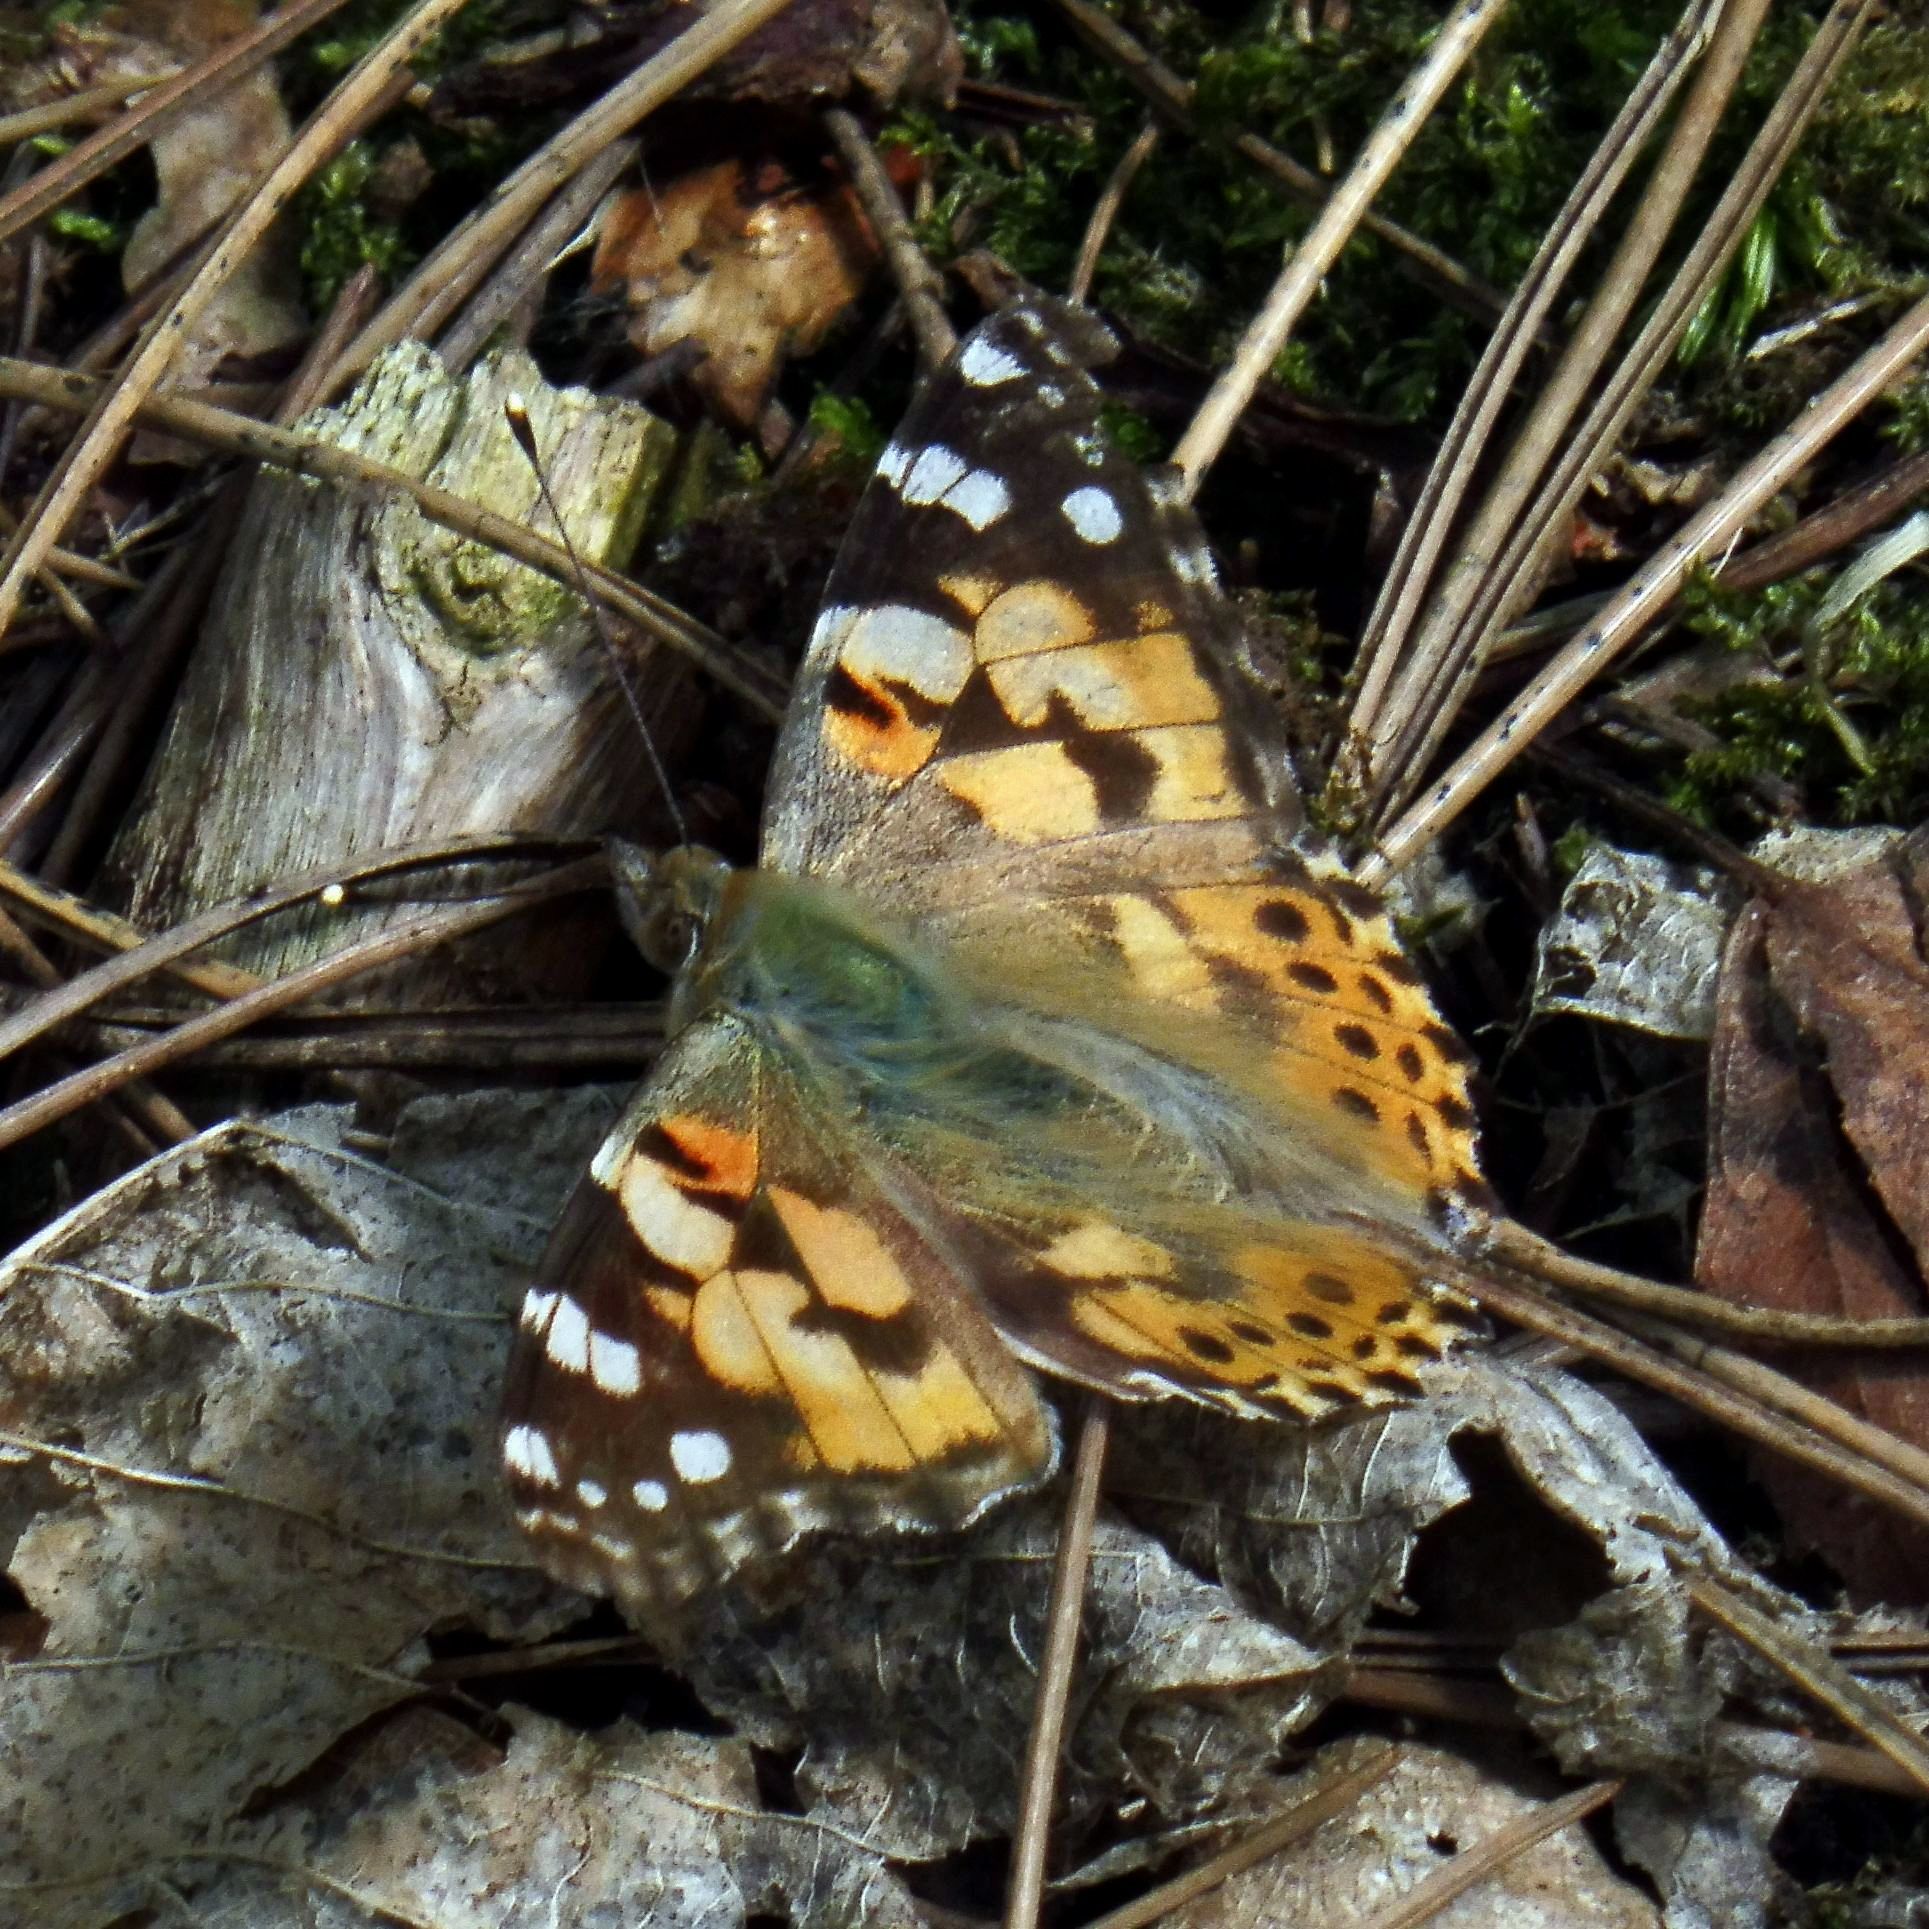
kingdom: Animalia
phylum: Arthropoda
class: Insecta
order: Lepidoptera
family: Nymphalidae
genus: Vanessa
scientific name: Vanessa cardui
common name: Painted lady
